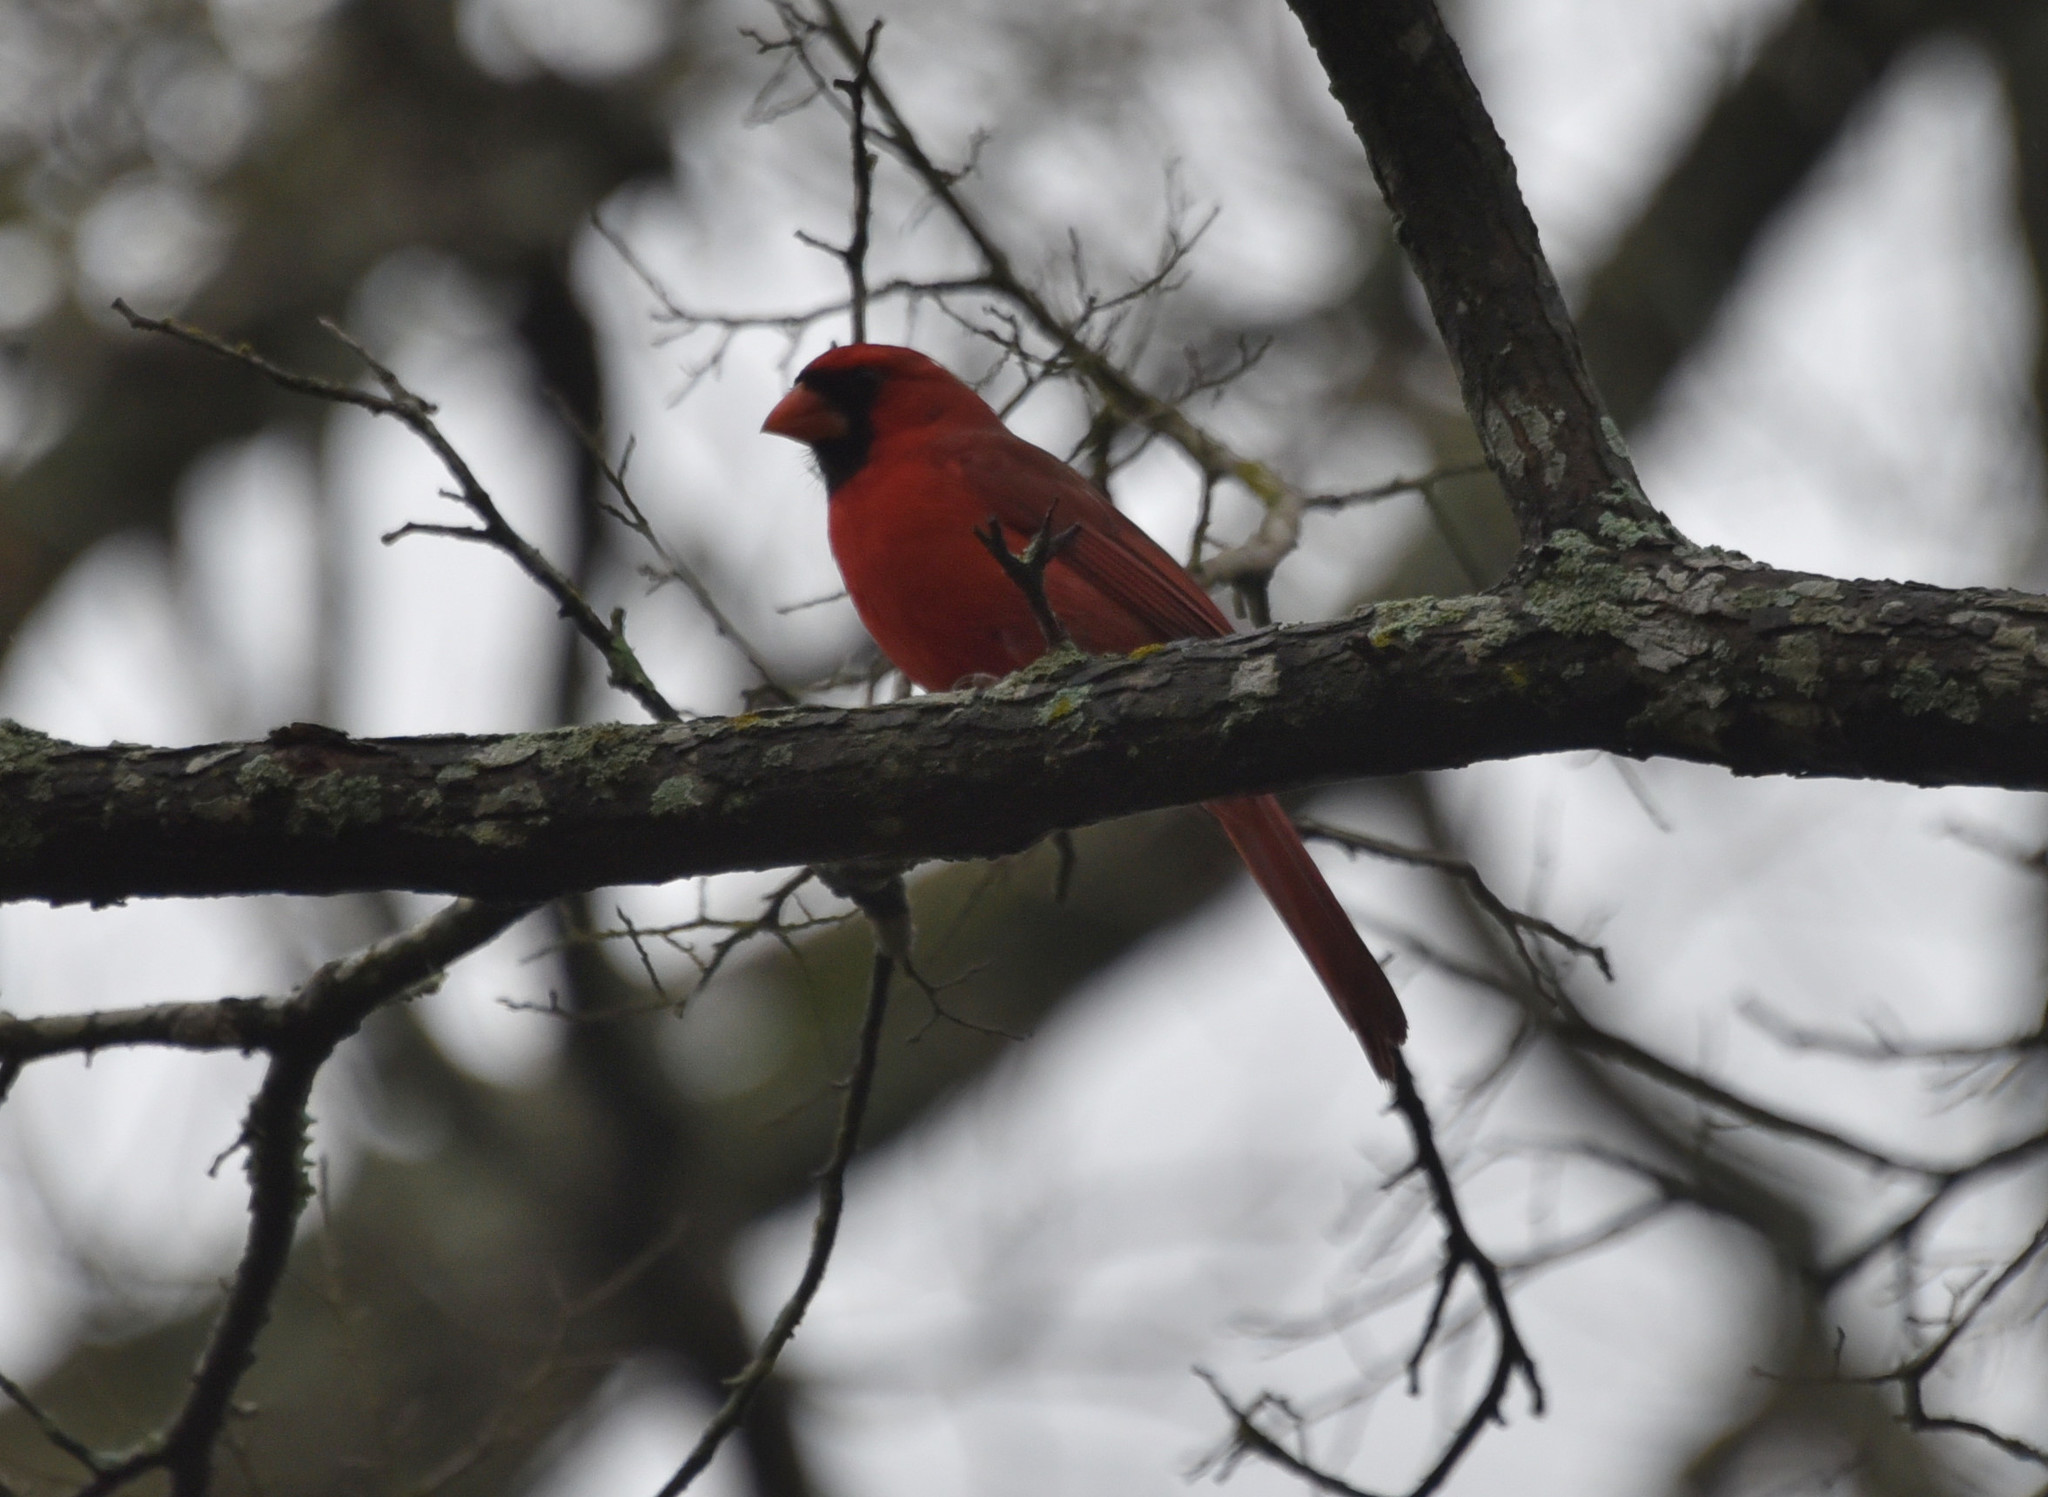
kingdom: Animalia
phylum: Chordata
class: Aves
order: Passeriformes
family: Cardinalidae
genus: Cardinalis
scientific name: Cardinalis cardinalis
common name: Northern cardinal
